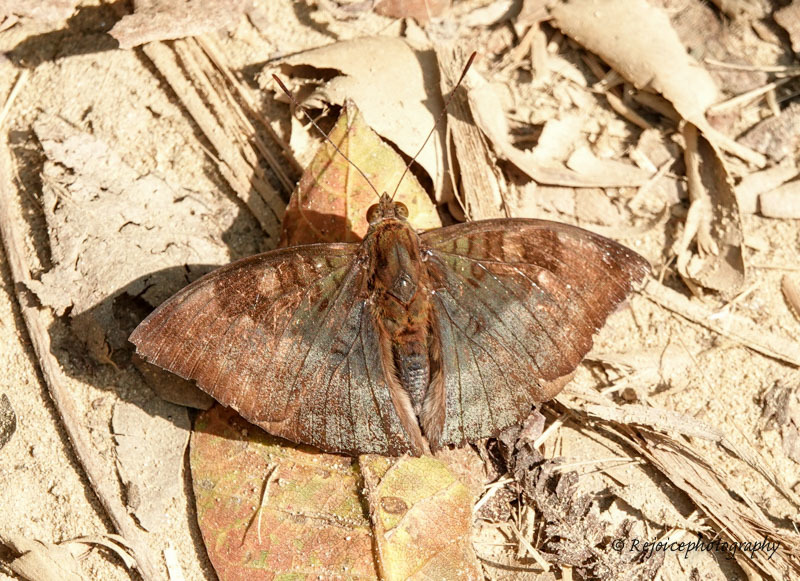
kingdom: Animalia
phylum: Arthropoda
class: Insecta
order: Lepidoptera
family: Nymphalidae
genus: Euthalia
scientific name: Euthalia monina
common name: Powdered baron
